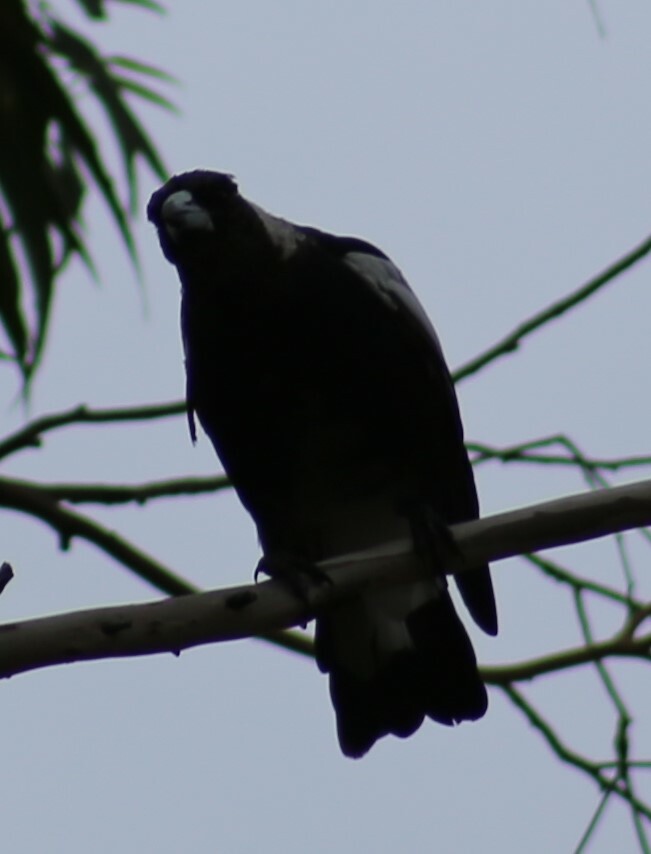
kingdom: Animalia
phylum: Chordata
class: Aves
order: Passeriformes
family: Cracticidae
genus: Gymnorhina
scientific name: Gymnorhina tibicen
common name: Australian magpie
